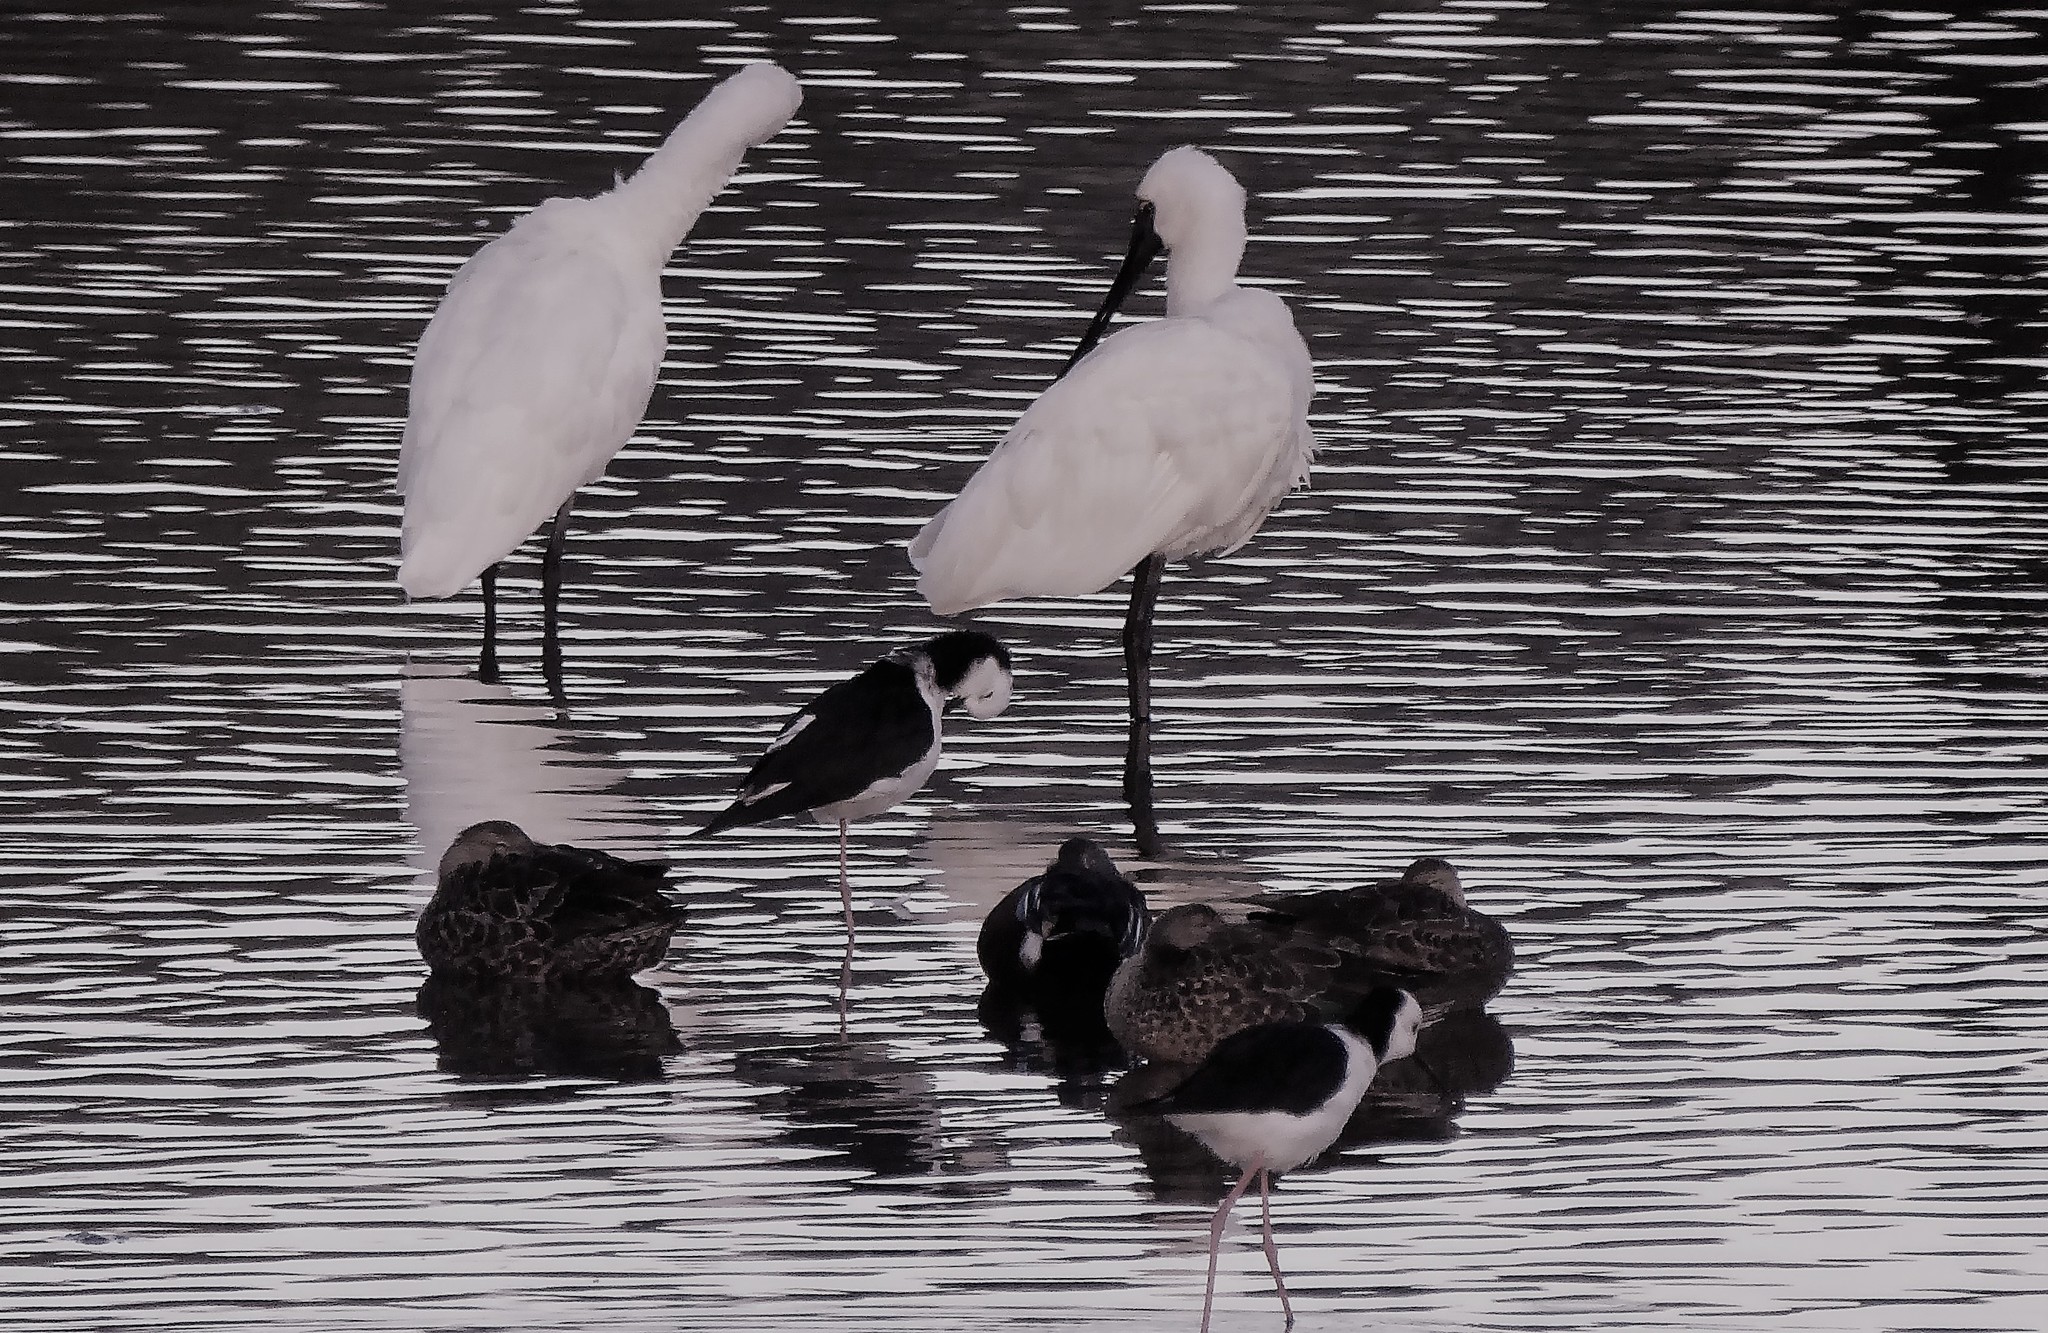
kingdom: Animalia
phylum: Chordata
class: Aves
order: Pelecaniformes
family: Threskiornithidae
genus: Platalea
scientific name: Platalea regia
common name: Royal spoonbill
